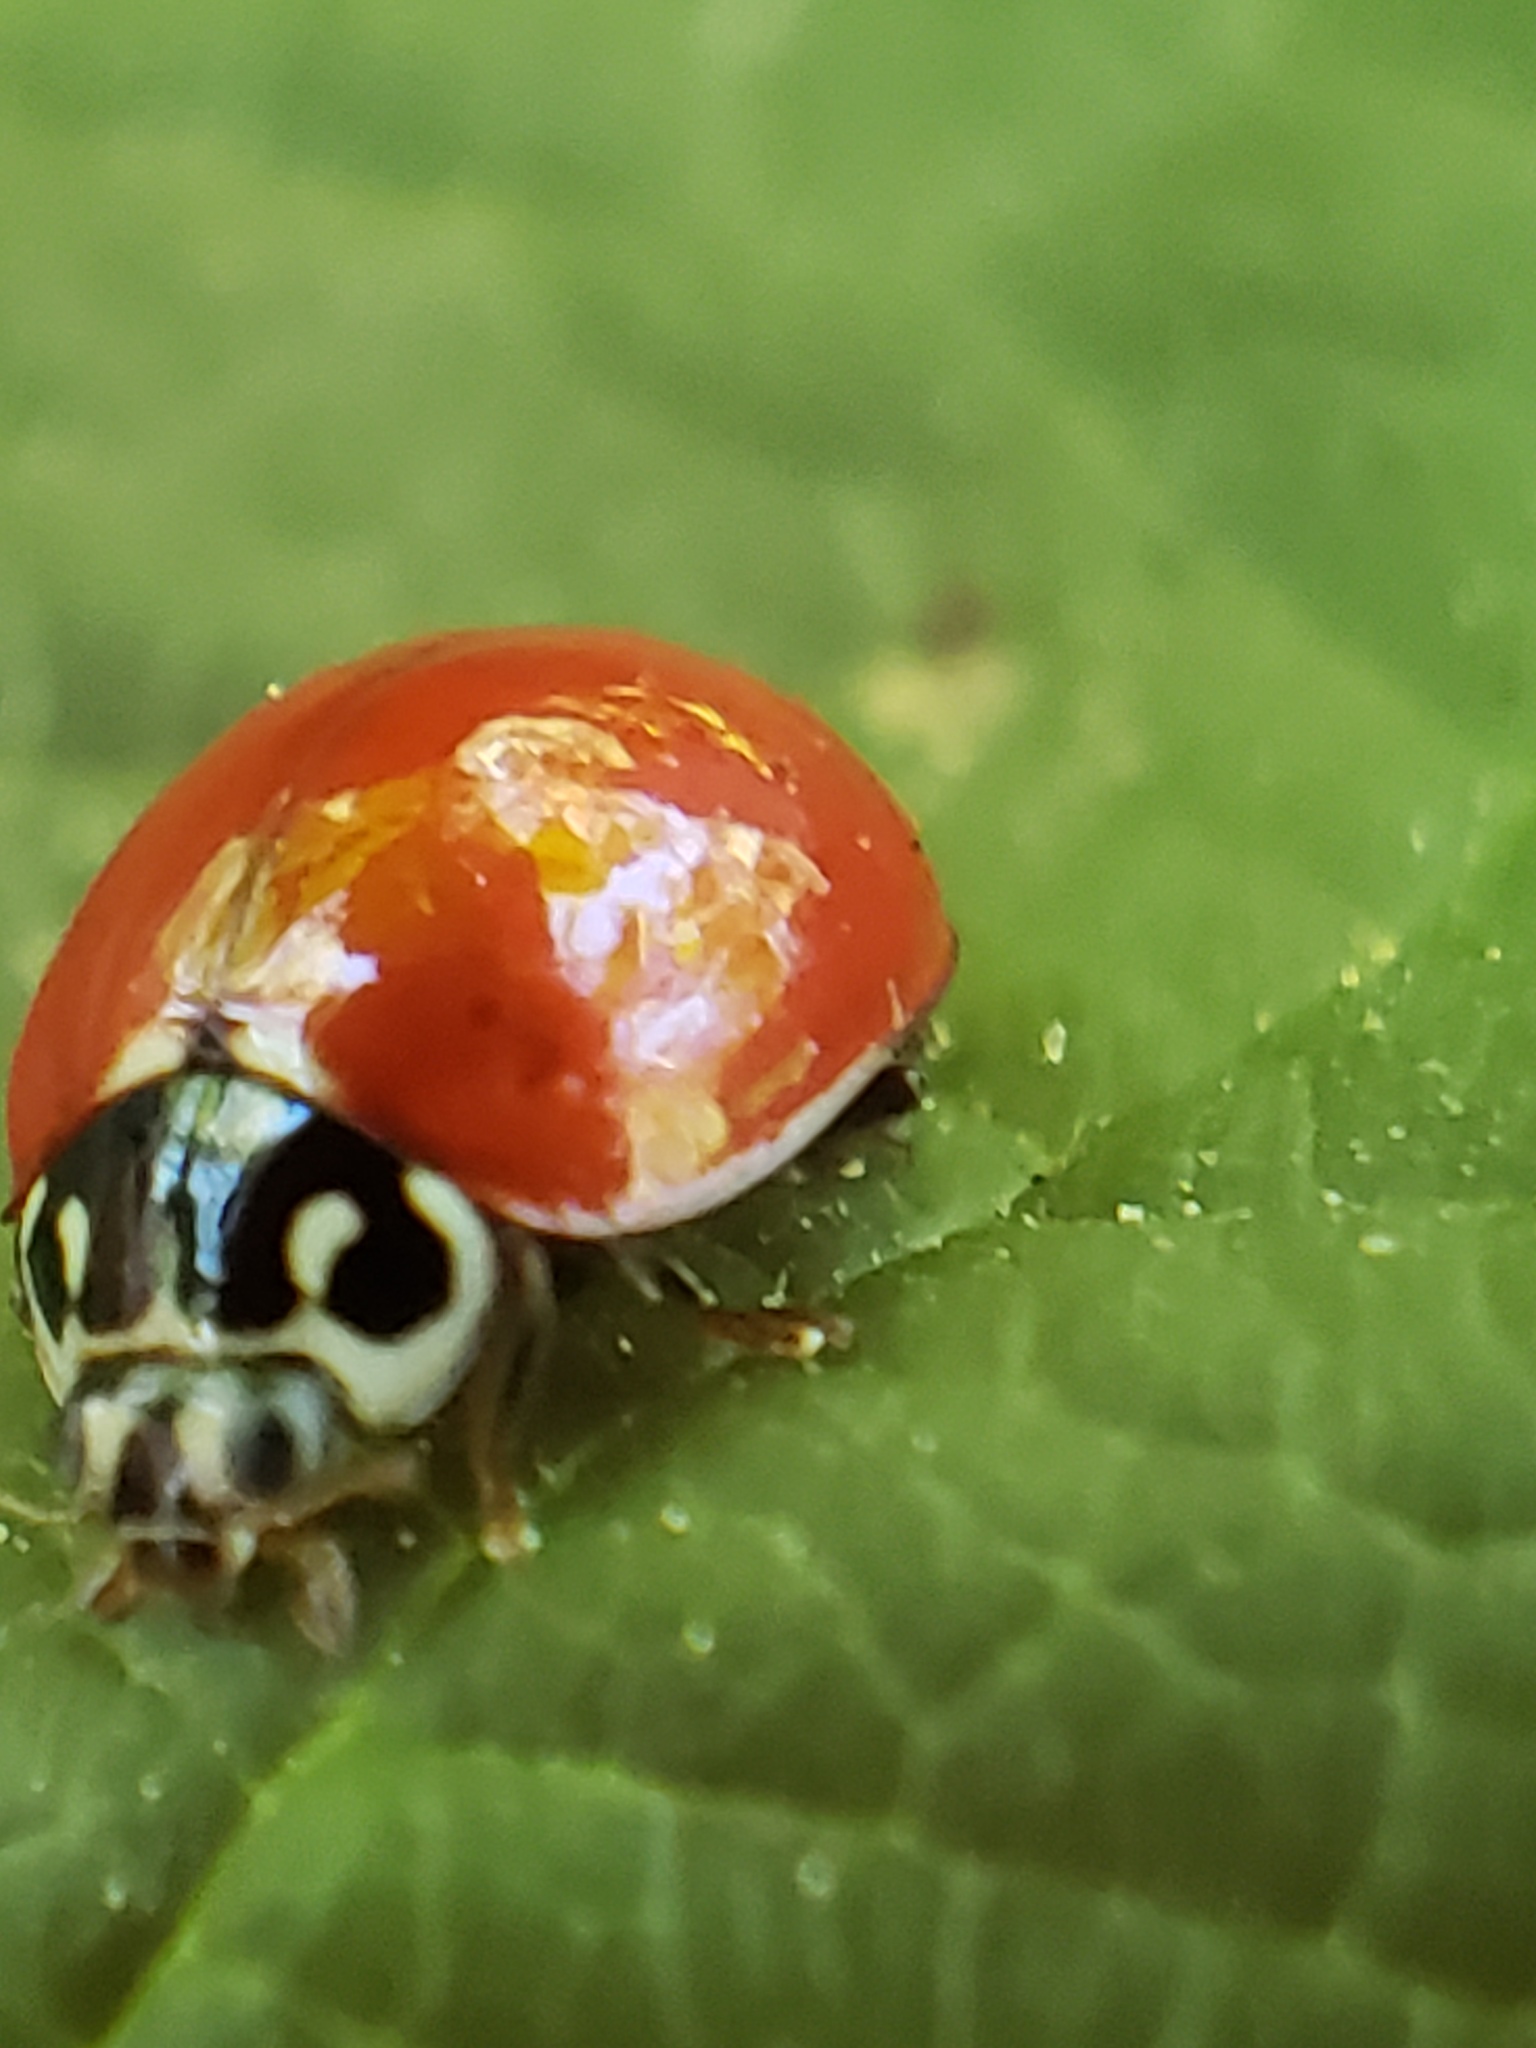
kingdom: Animalia
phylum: Arthropoda
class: Insecta
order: Coleoptera
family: Coccinellidae
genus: Cycloneda
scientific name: Cycloneda polita
